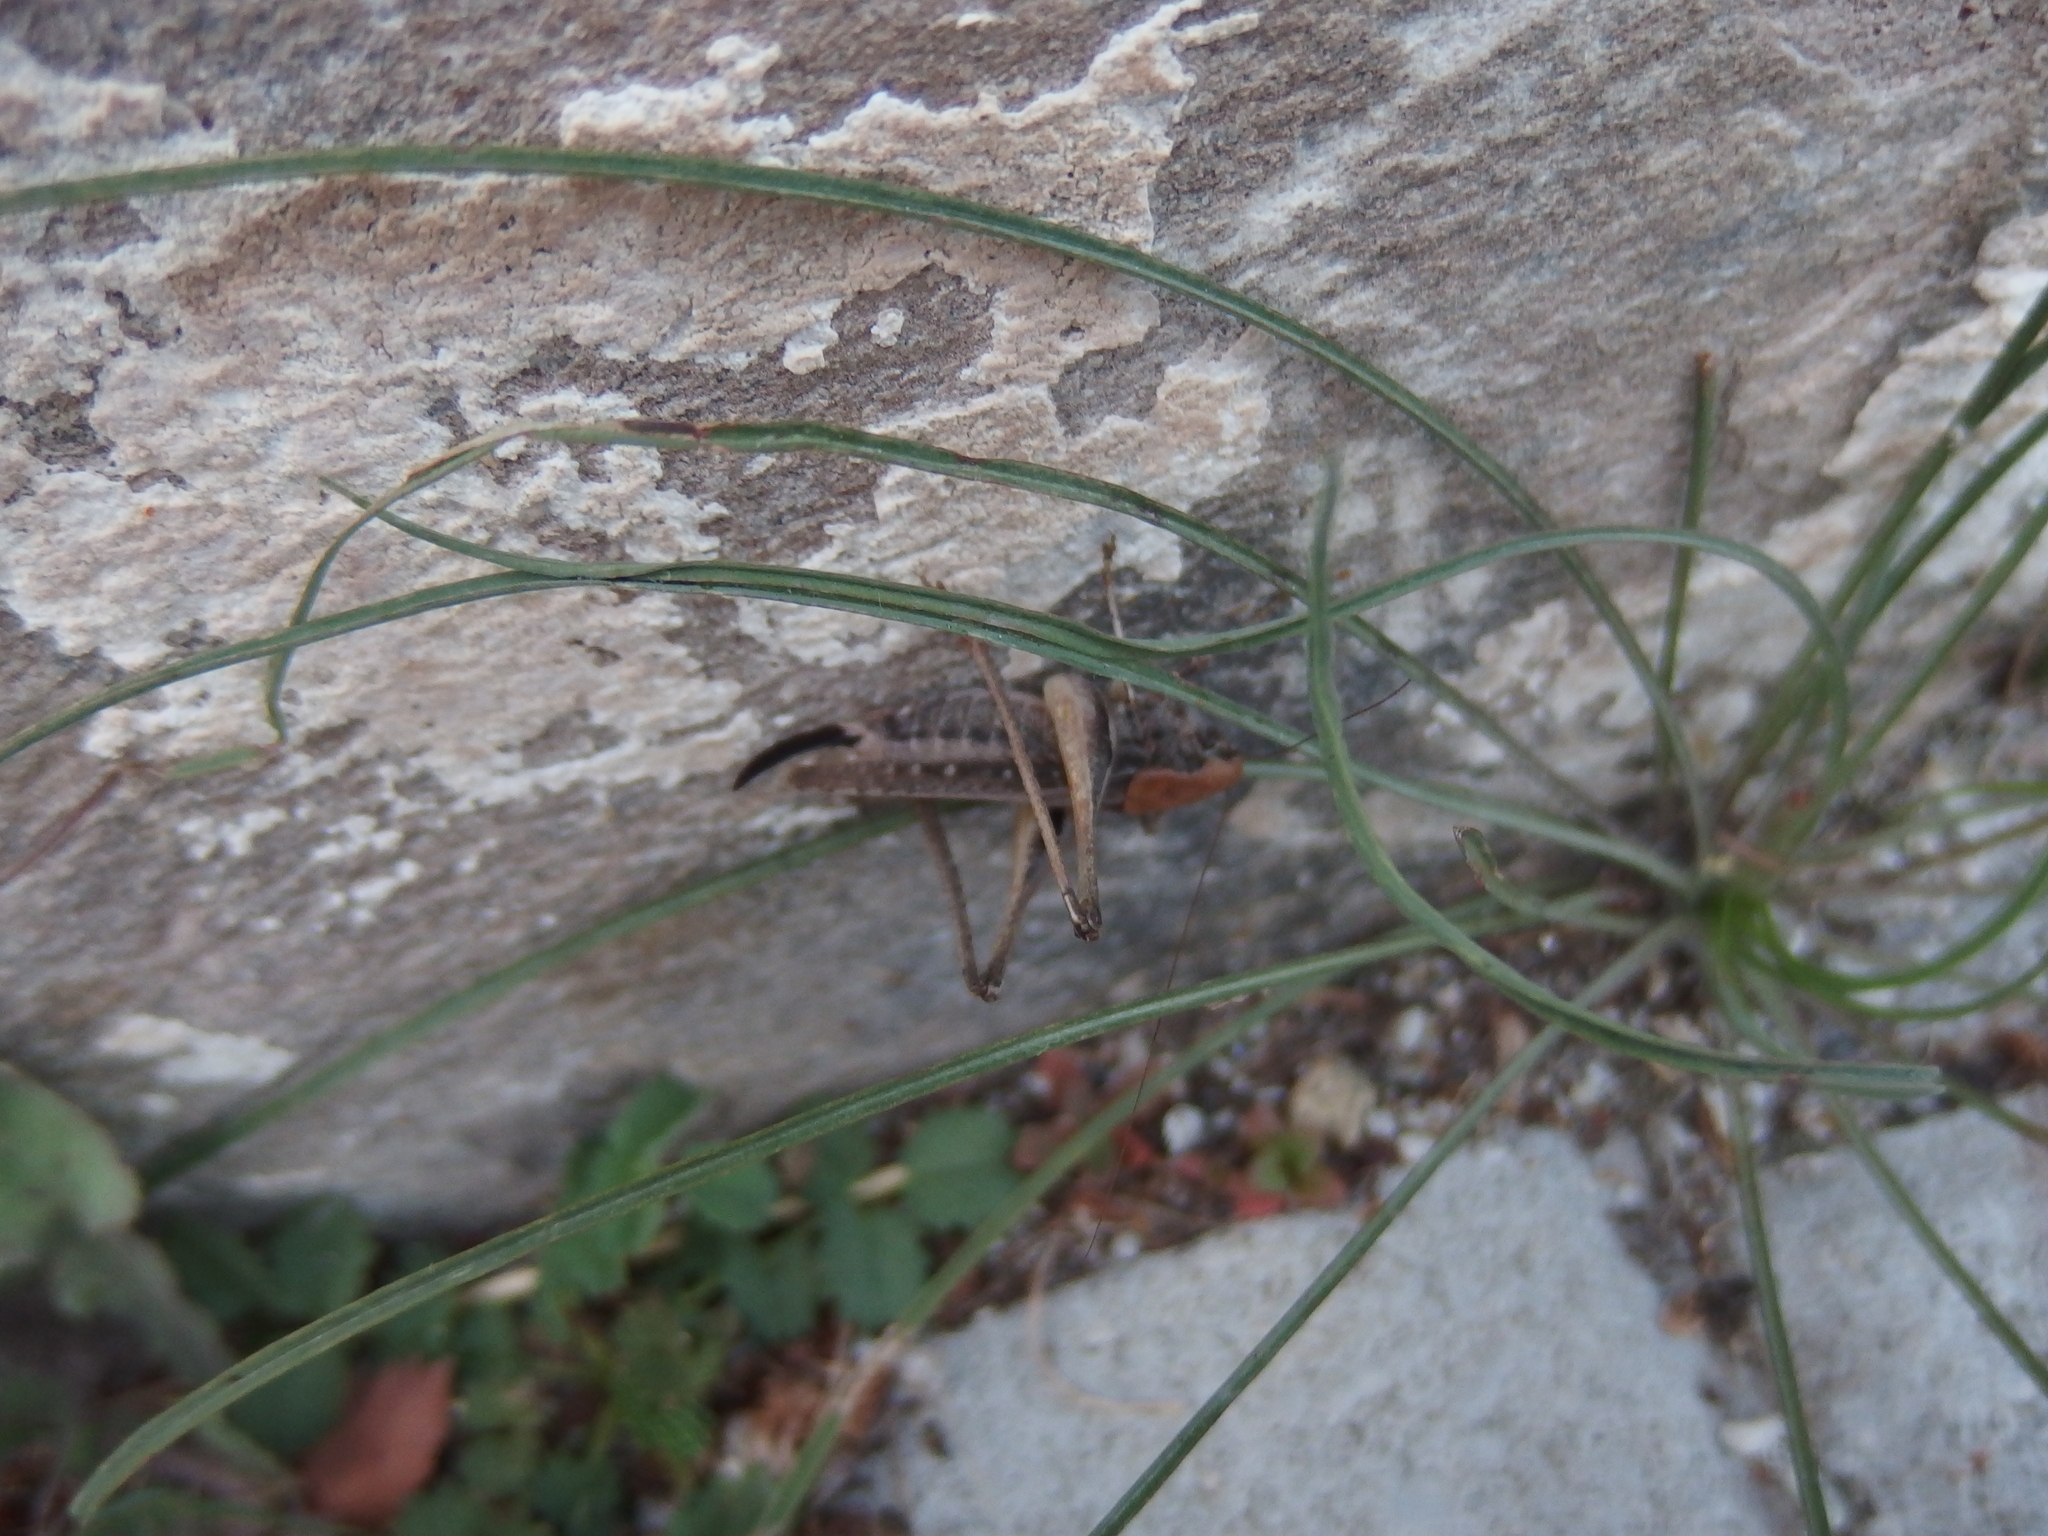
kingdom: Animalia
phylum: Arthropoda
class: Insecta
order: Orthoptera
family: Tettigoniidae
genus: Platycleis
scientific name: Platycleis albopunctata
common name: Grey bush-cricket
